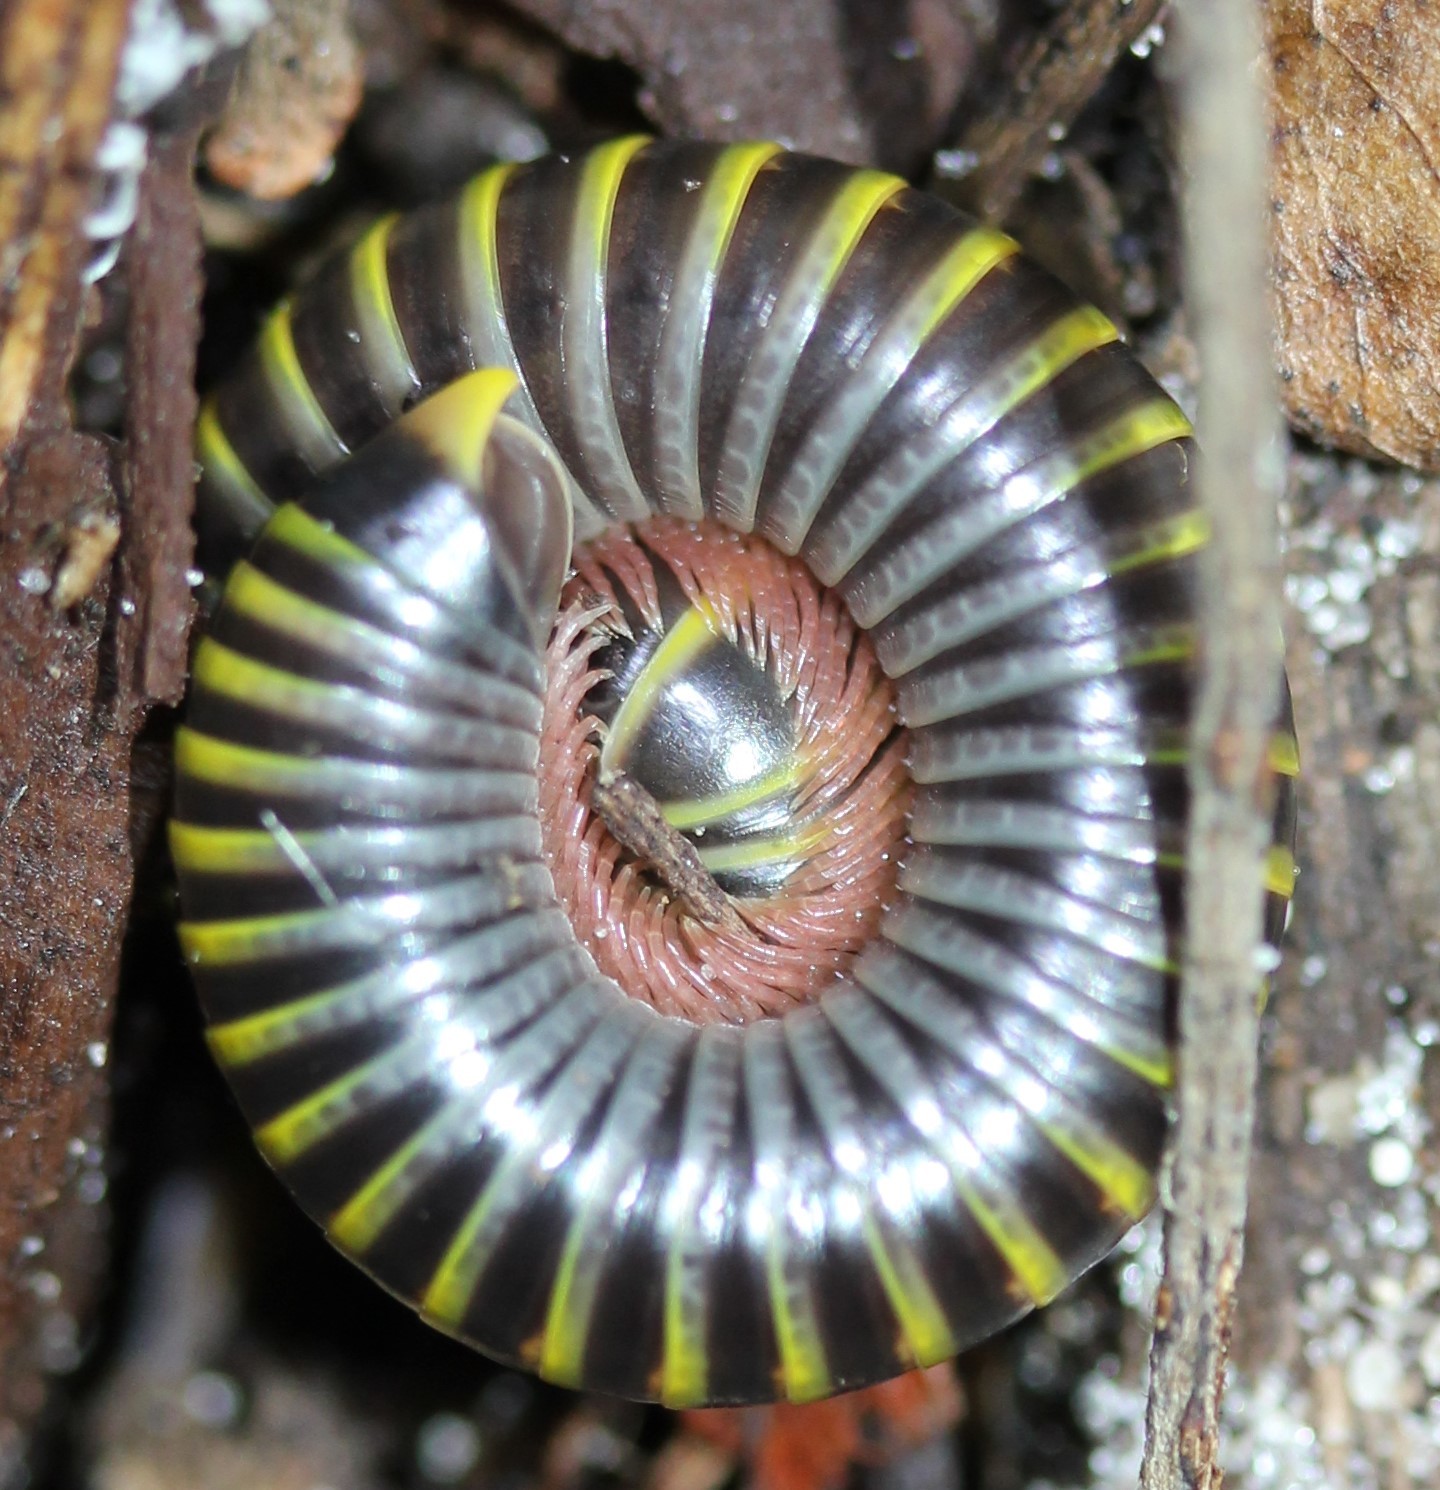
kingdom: Animalia
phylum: Arthropoda
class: Diplopoda
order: Spirobolida
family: Rhinocricidae
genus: Anadenobolus
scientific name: Anadenobolus monilicornis
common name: Caribbean millipede
